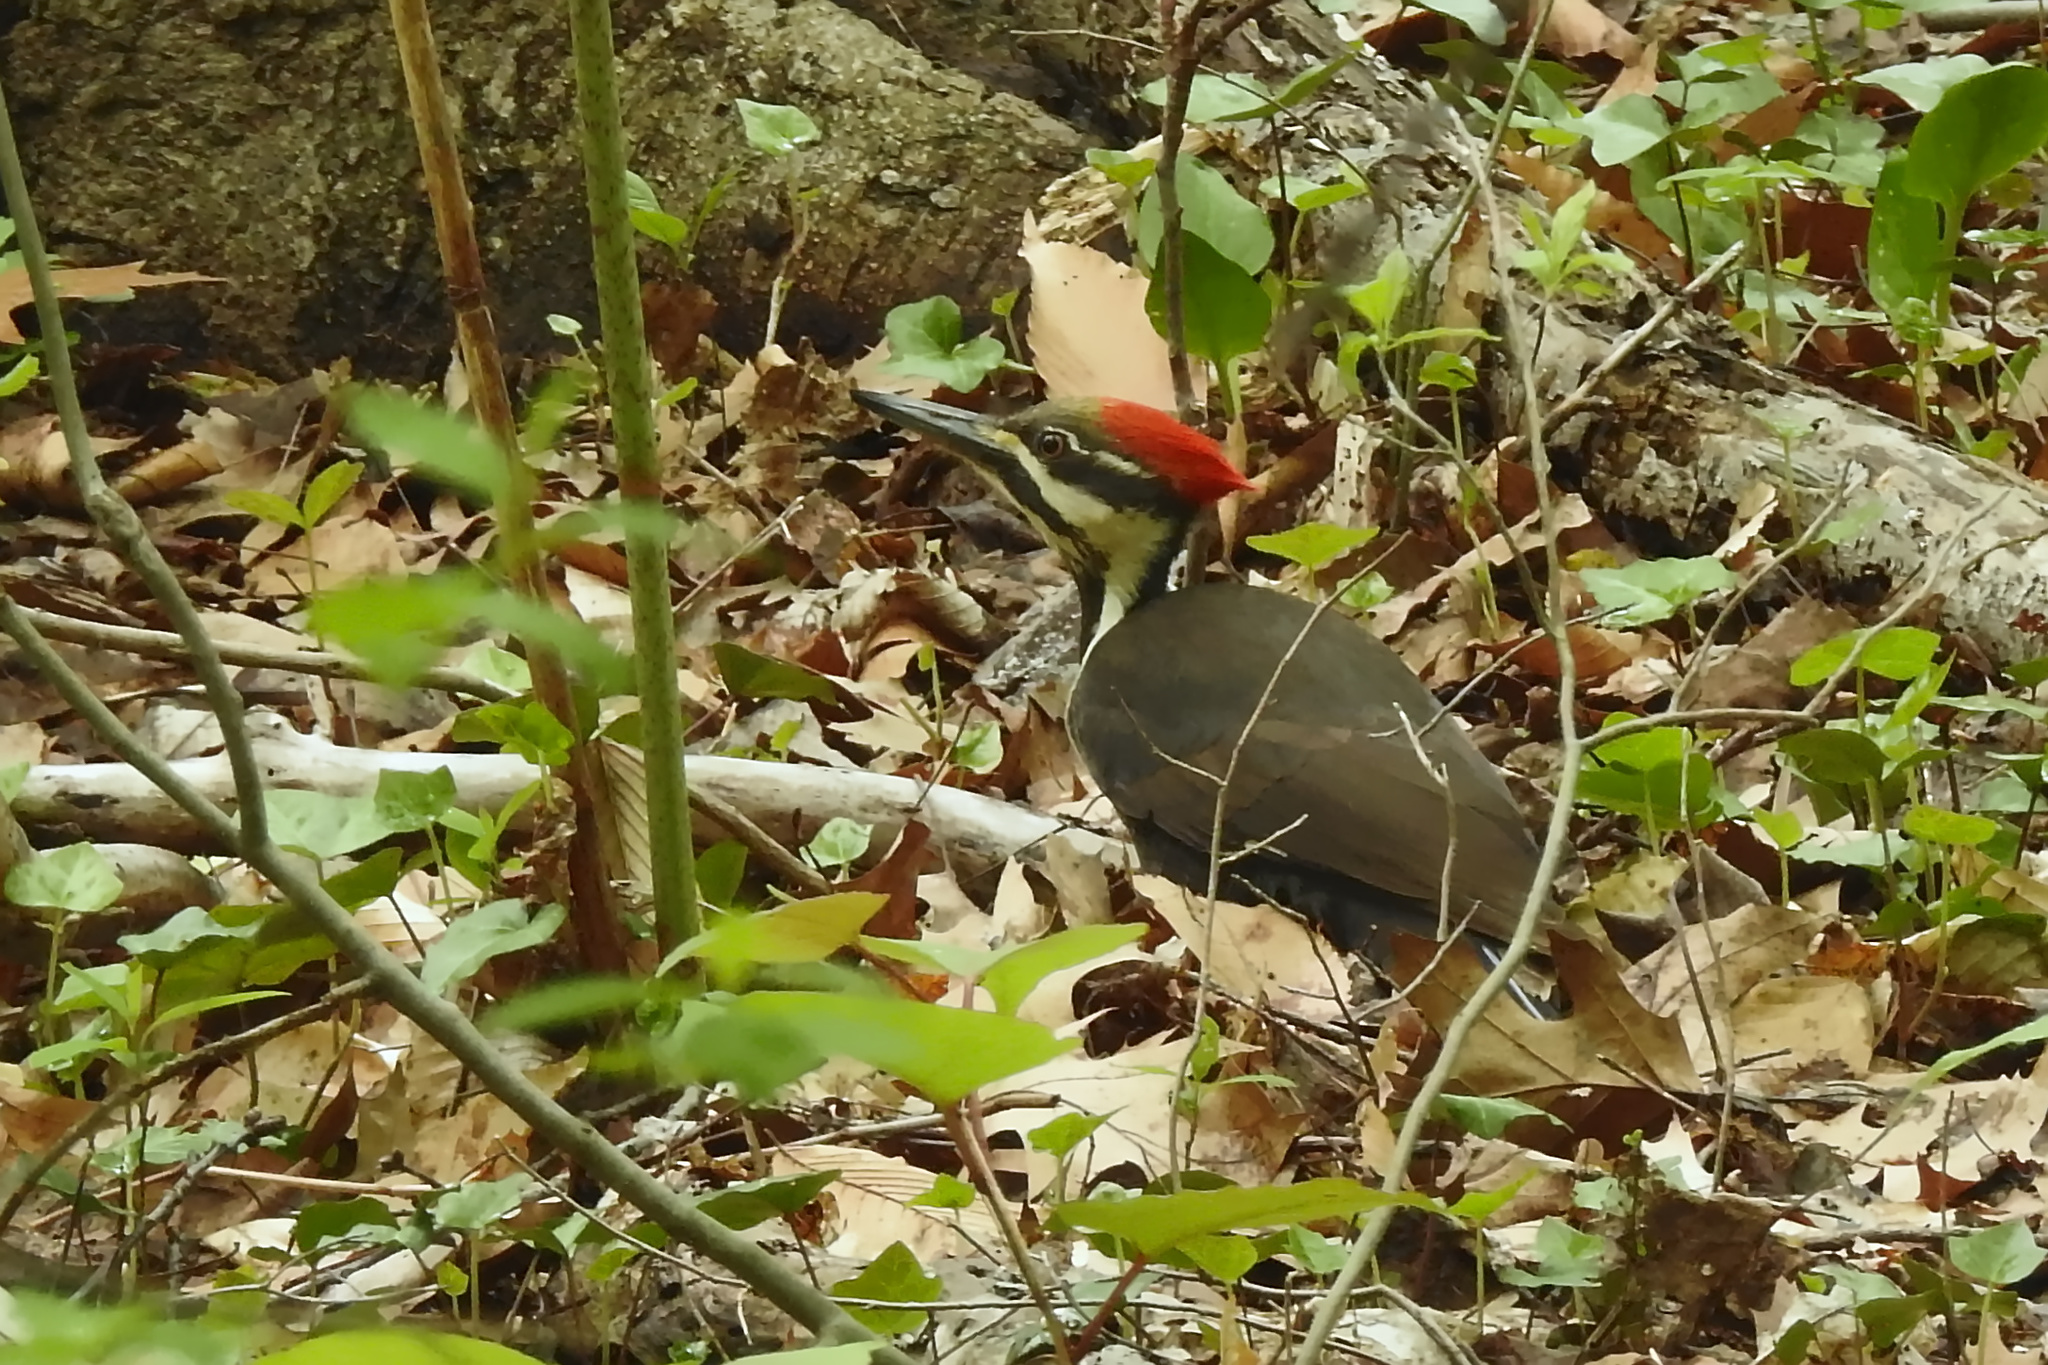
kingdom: Animalia
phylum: Chordata
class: Aves
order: Piciformes
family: Picidae
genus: Dryocopus
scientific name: Dryocopus pileatus
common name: Pileated woodpecker
